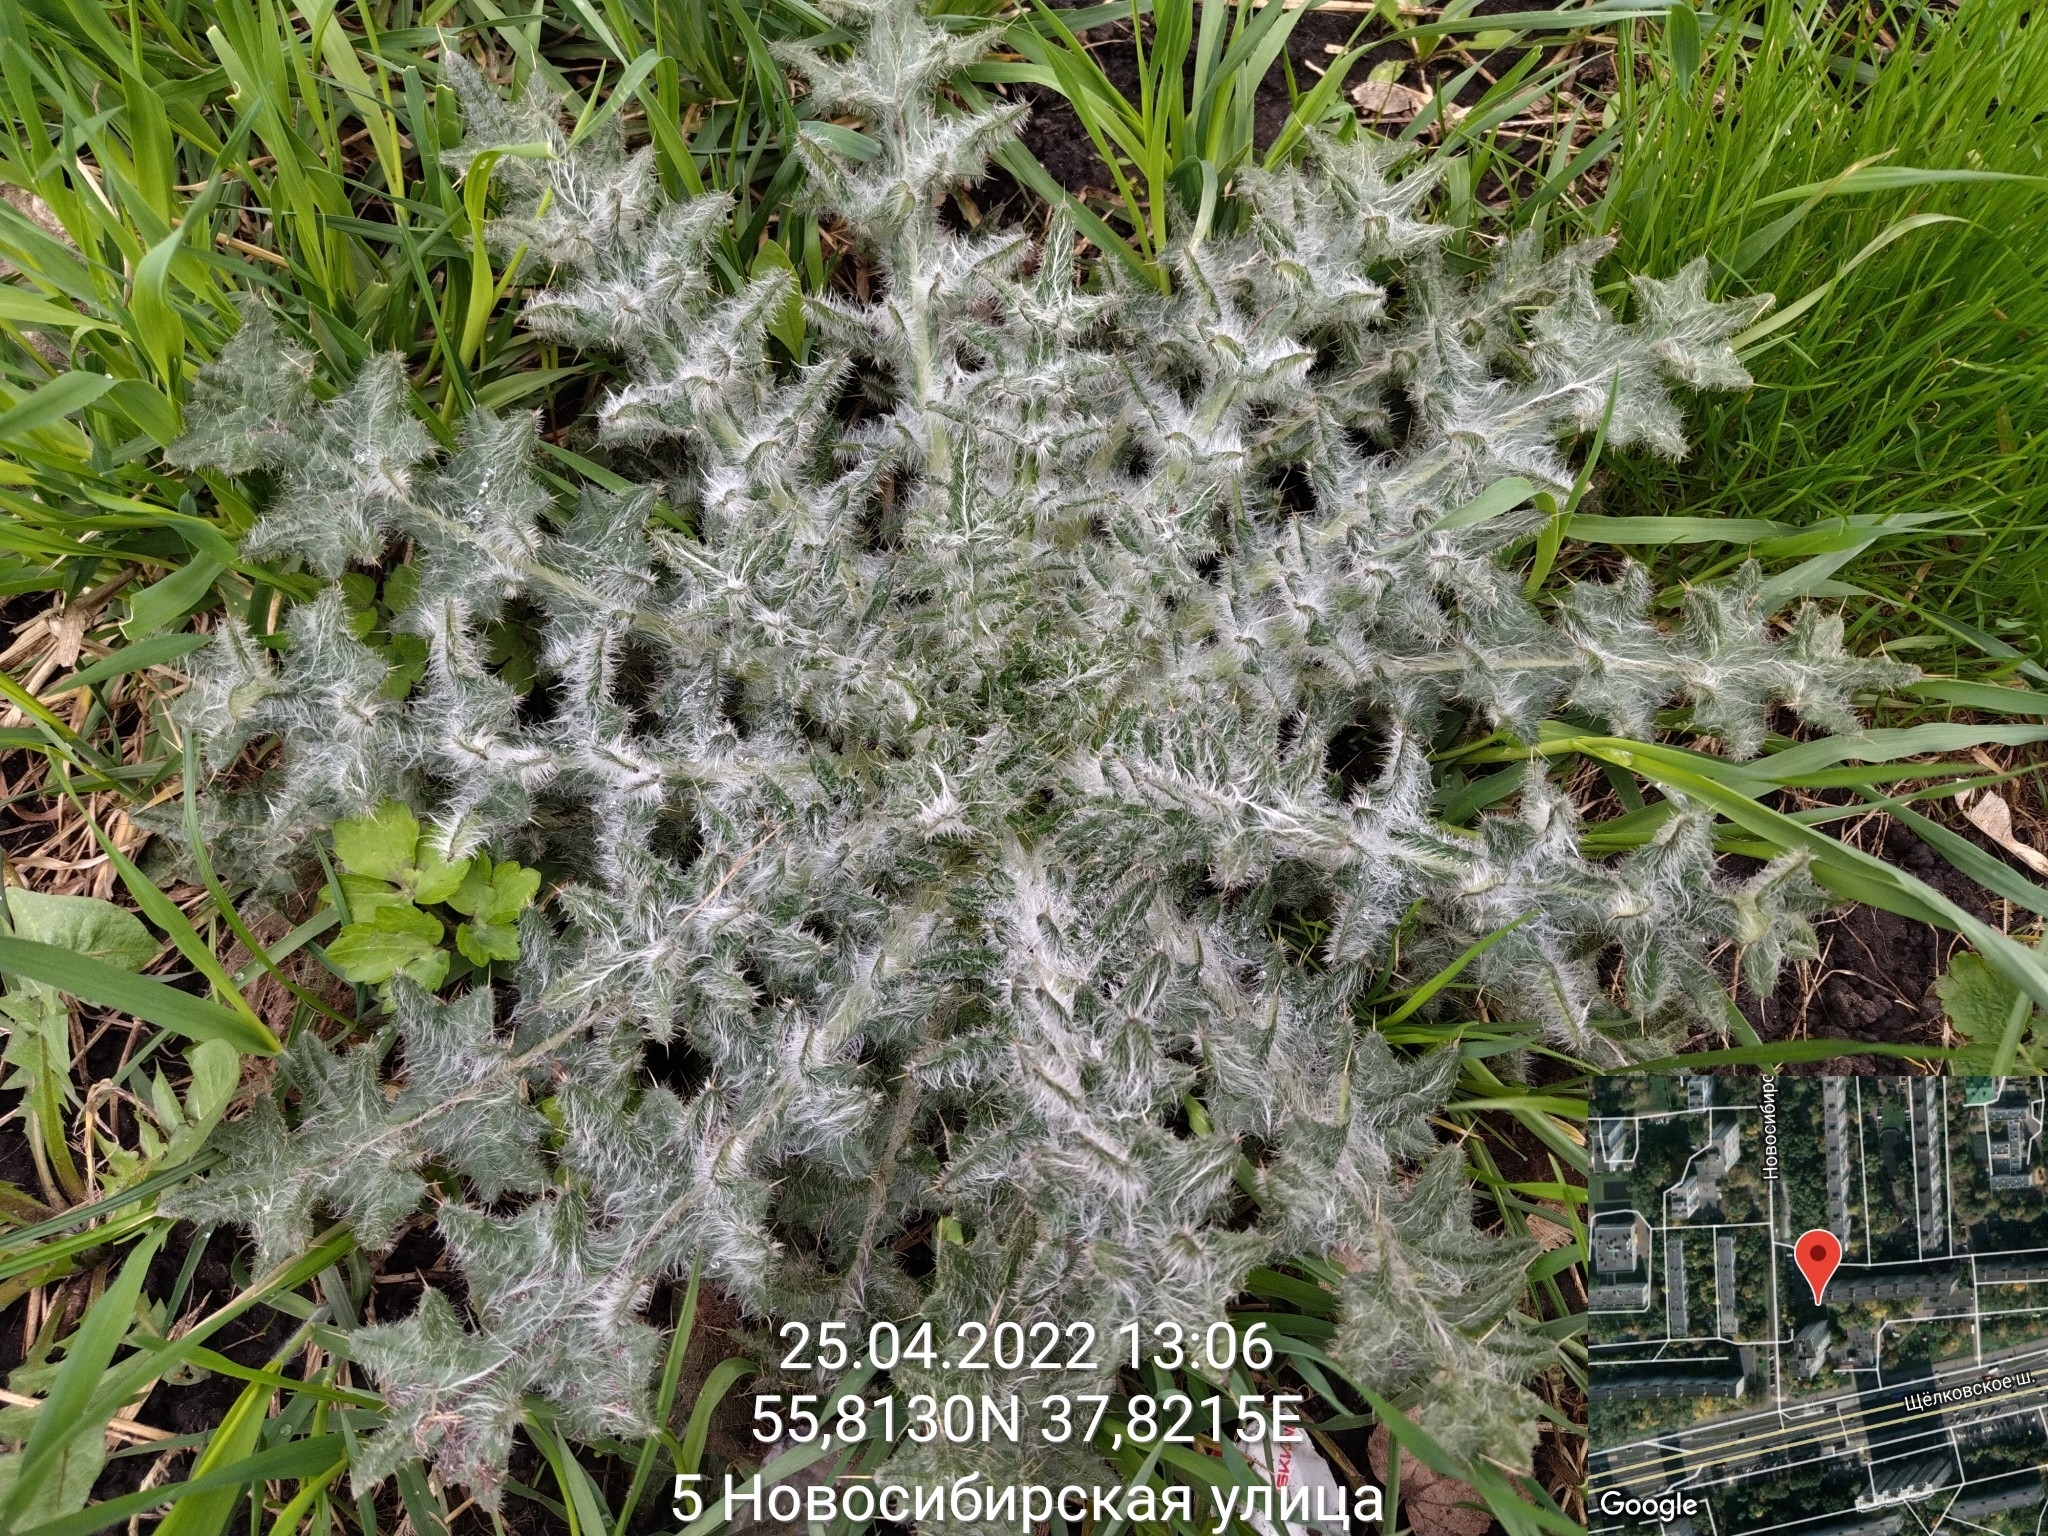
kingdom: Plantae
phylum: Tracheophyta
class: Magnoliopsida
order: Asterales
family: Asteraceae
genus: Cirsium
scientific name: Cirsium vulgare
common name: Bull thistle
